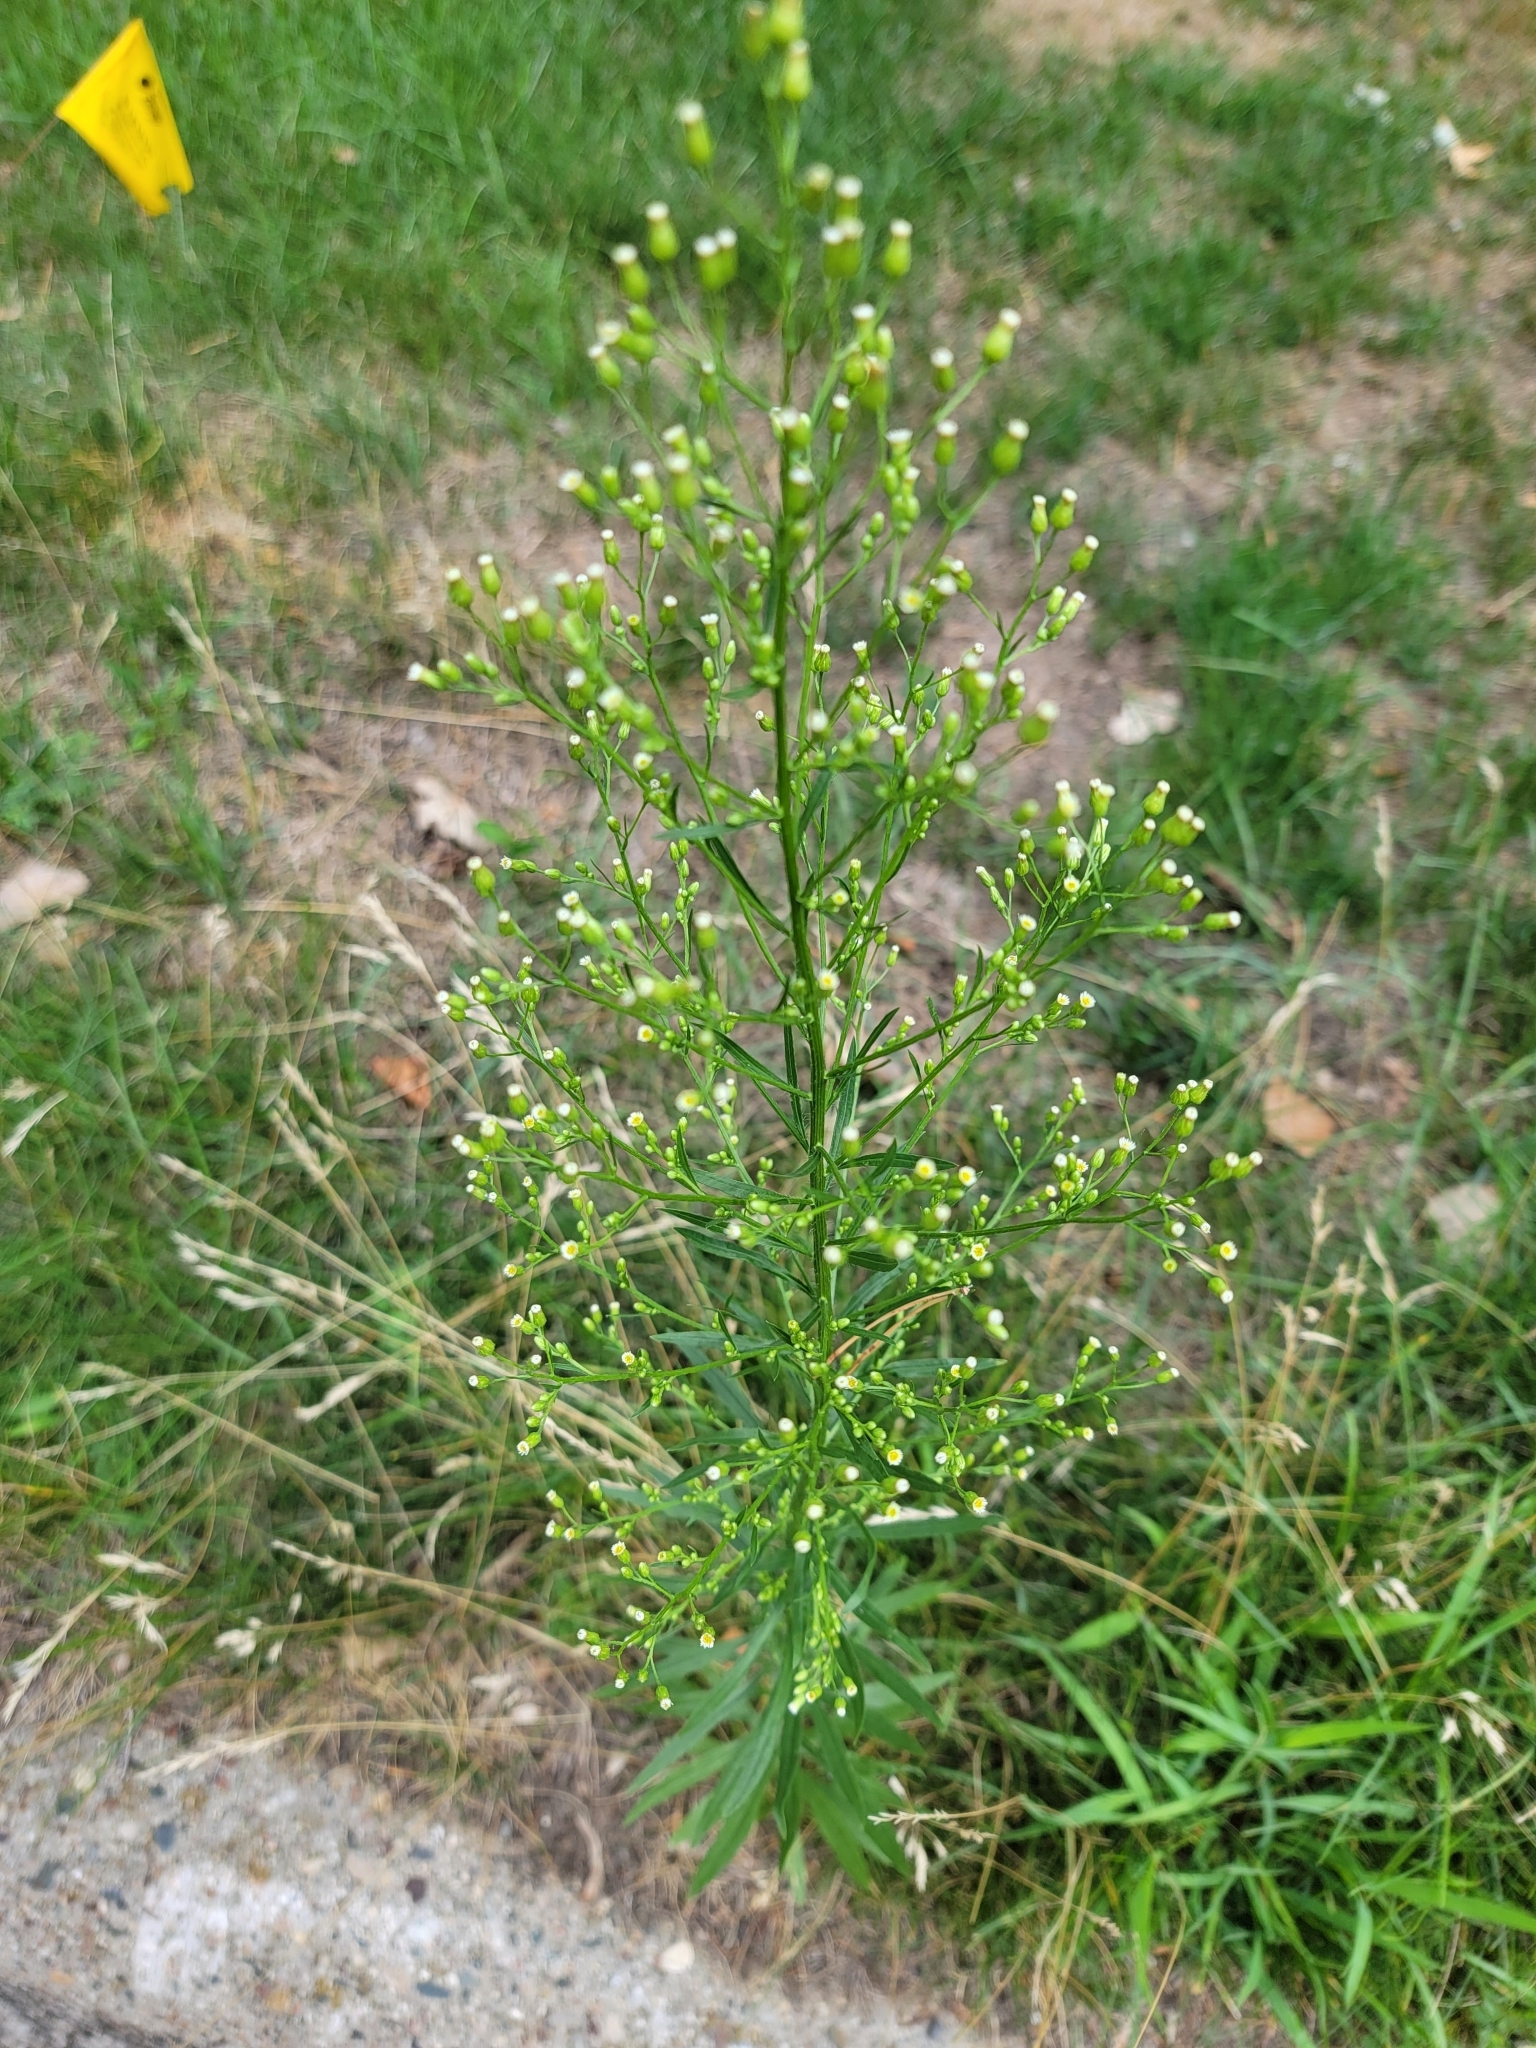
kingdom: Plantae
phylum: Tracheophyta
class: Magnoliopsida
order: Asterales
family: Asteraceae
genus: Erigeron
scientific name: Erigeron canadensis
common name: Canadian fleabane
